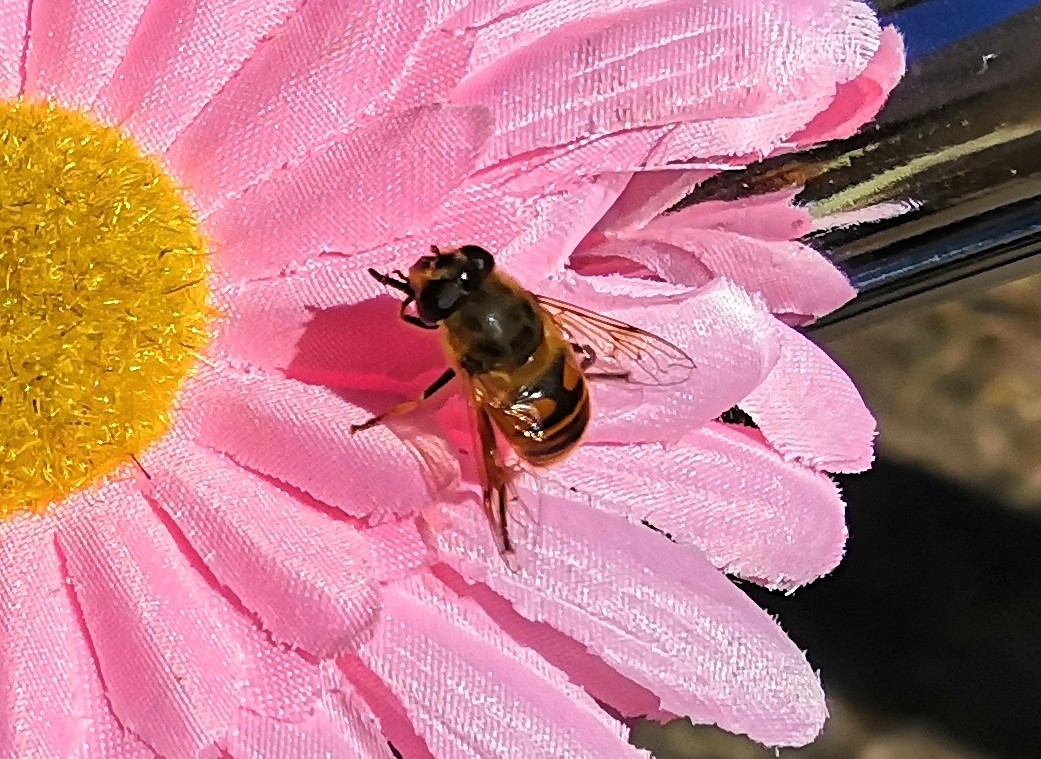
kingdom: Animalia
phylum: Arthropoda
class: Insecta
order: Diptera
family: Syrphidae
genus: Eristalis
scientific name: Eristalis tenax
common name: Drone fly
